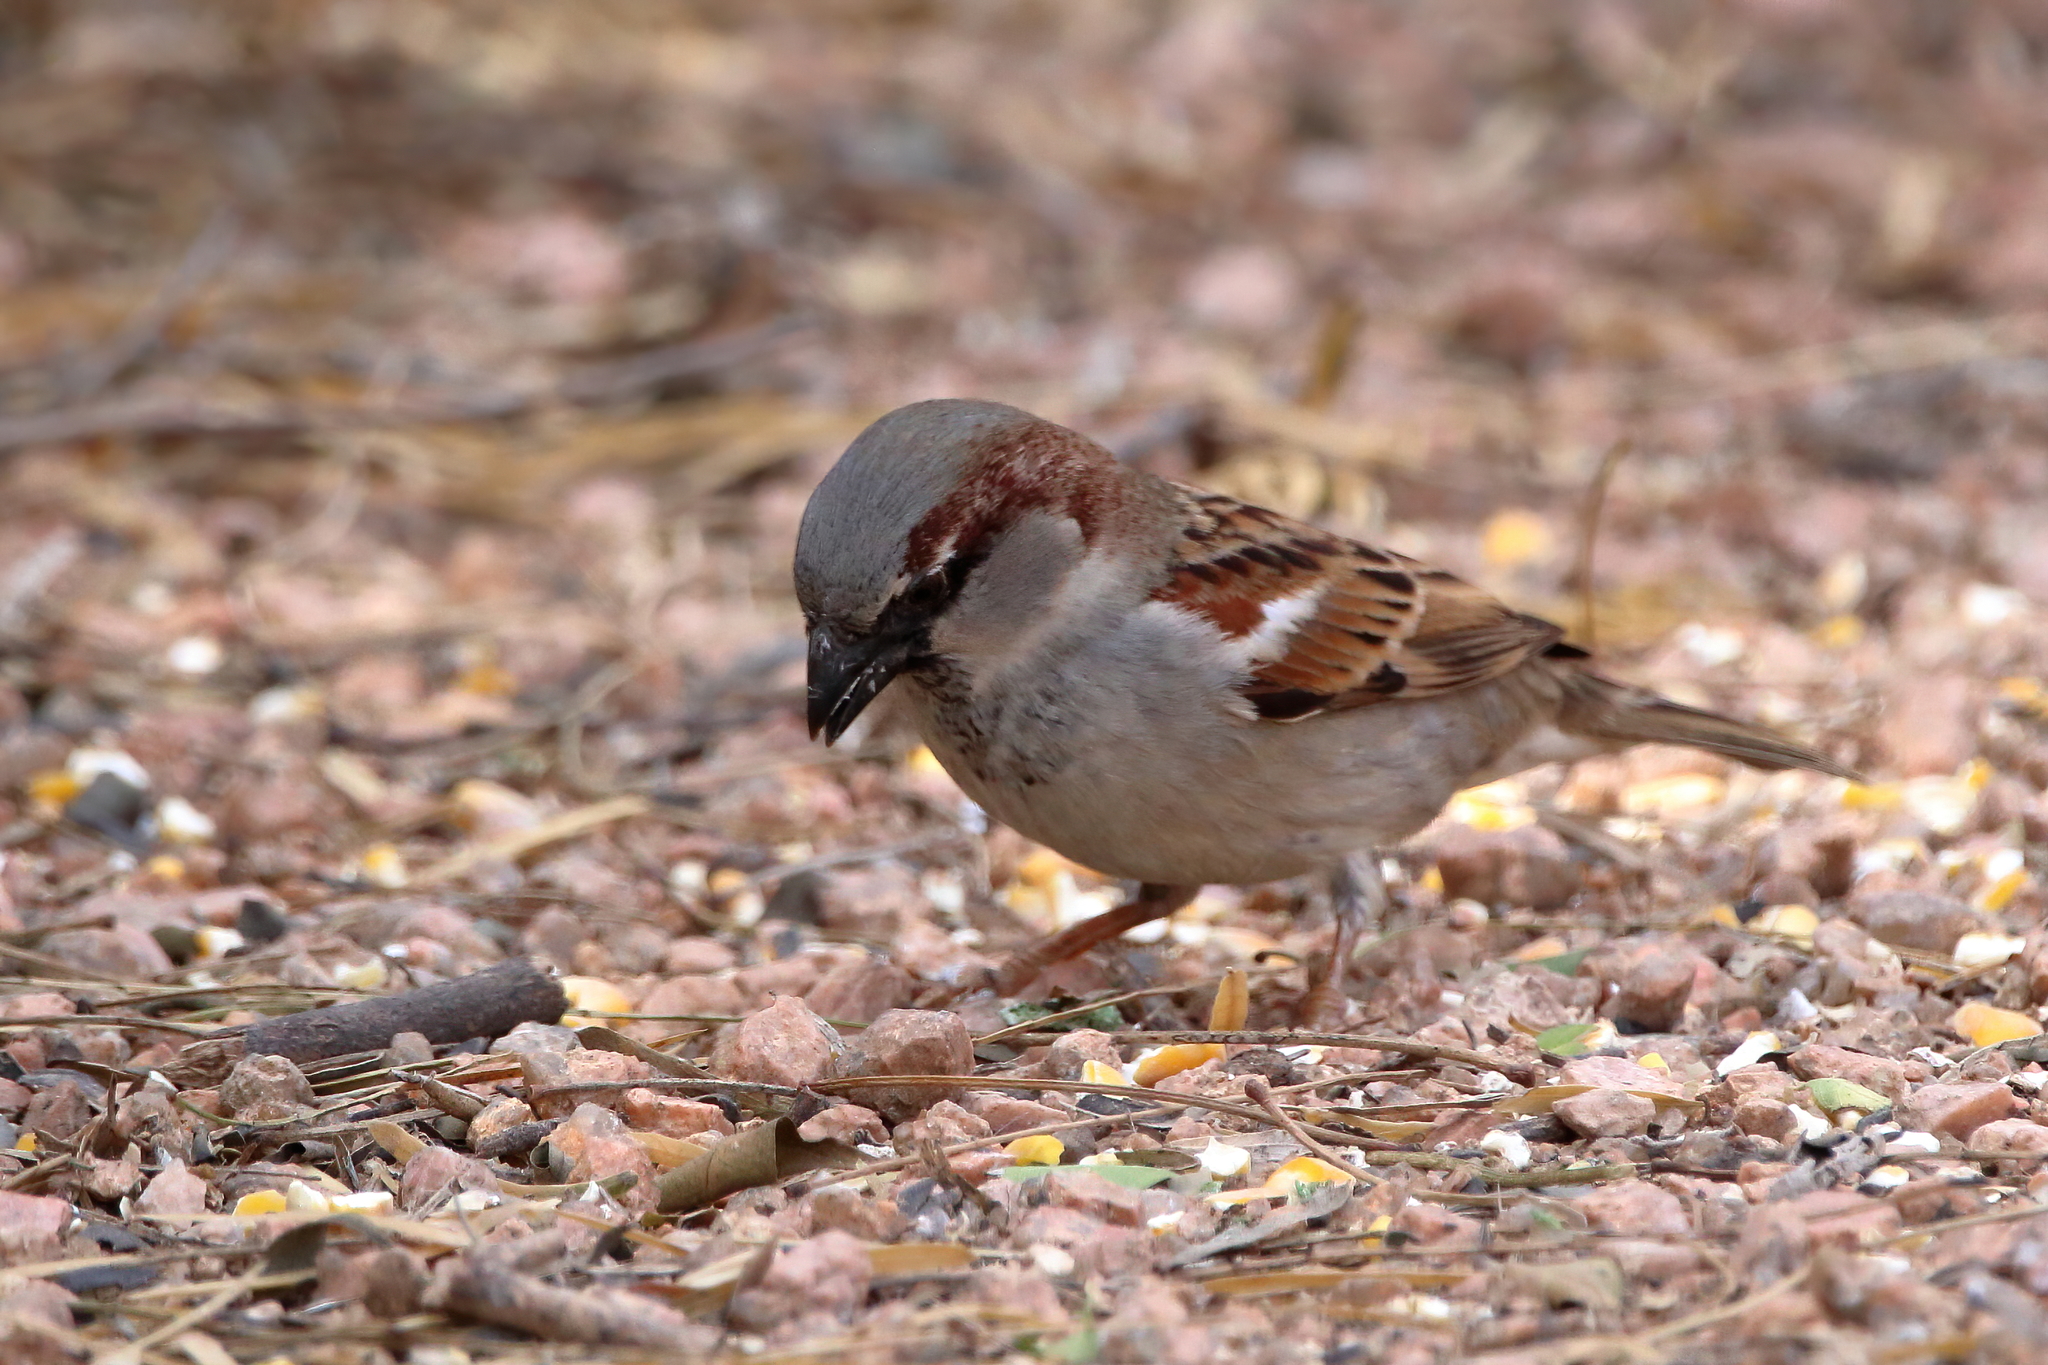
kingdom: Animalia
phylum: Chordata
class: Aves
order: Passeriformes
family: Passeridae
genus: Passer
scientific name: Passer domesticus
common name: House sparrow
